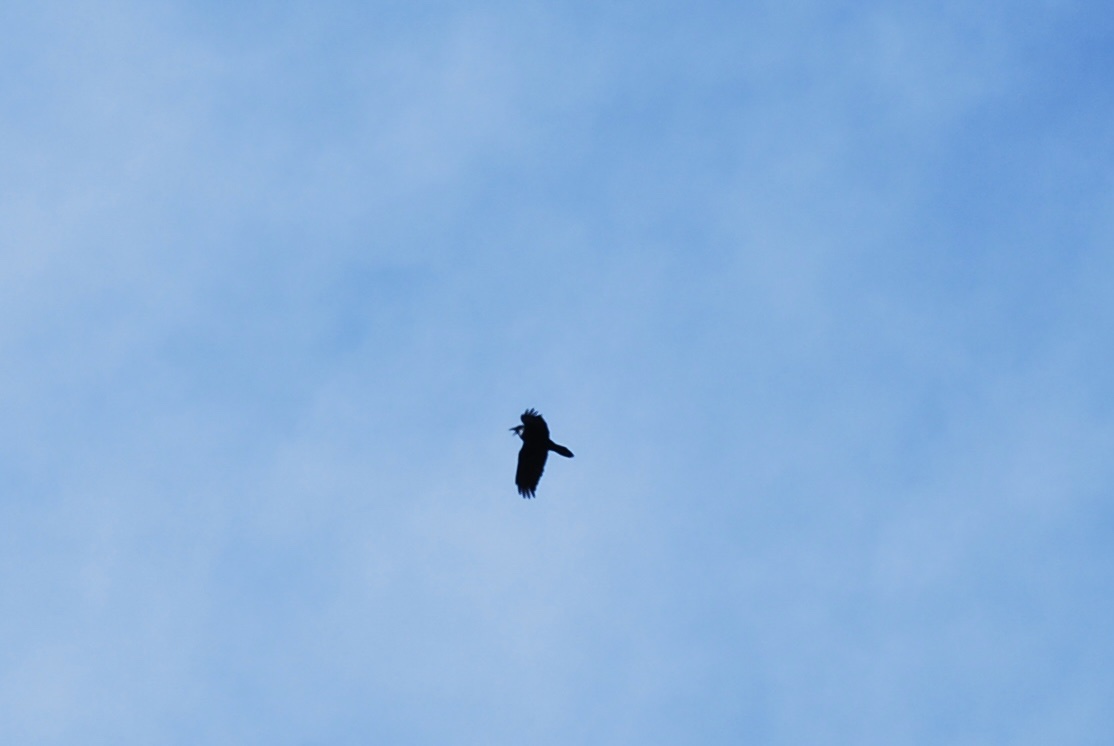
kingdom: Animalia
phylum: Chordata
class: Aves
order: Passeriformes
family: Corvidae
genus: Corvus
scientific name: Corvus corax
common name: Common raven
